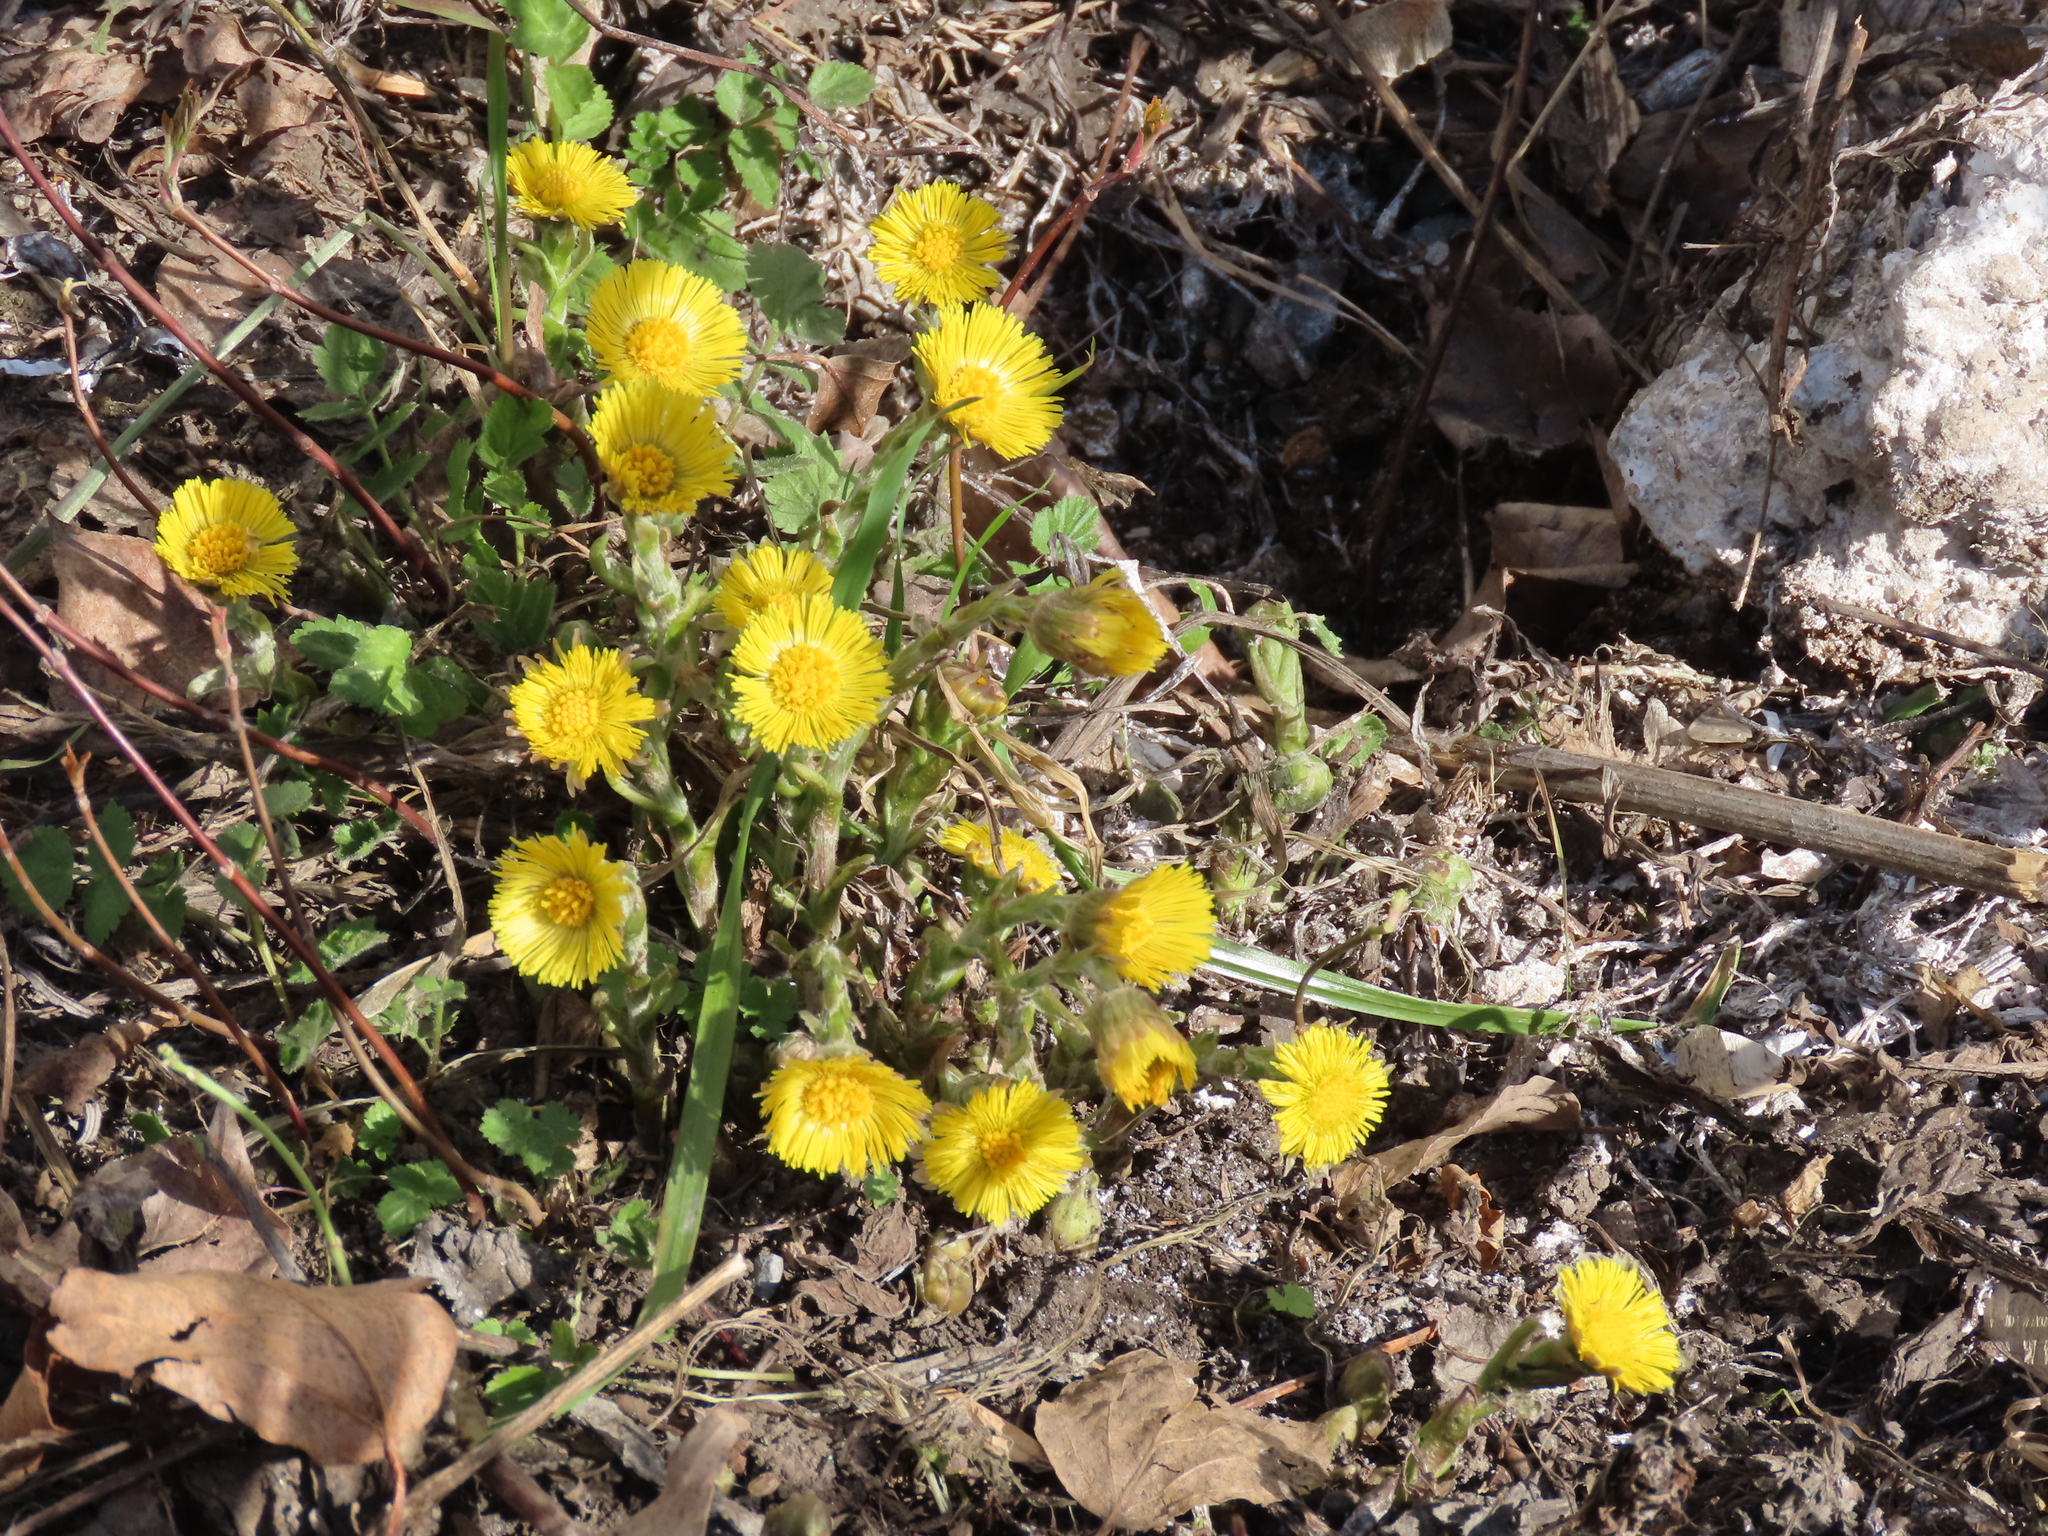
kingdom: Plantae
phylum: Tracheophyta
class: Magnoliopsida
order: Asterales
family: Asteraceae
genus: Tussilago
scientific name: Tussilago farfara
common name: Coltsfoot
